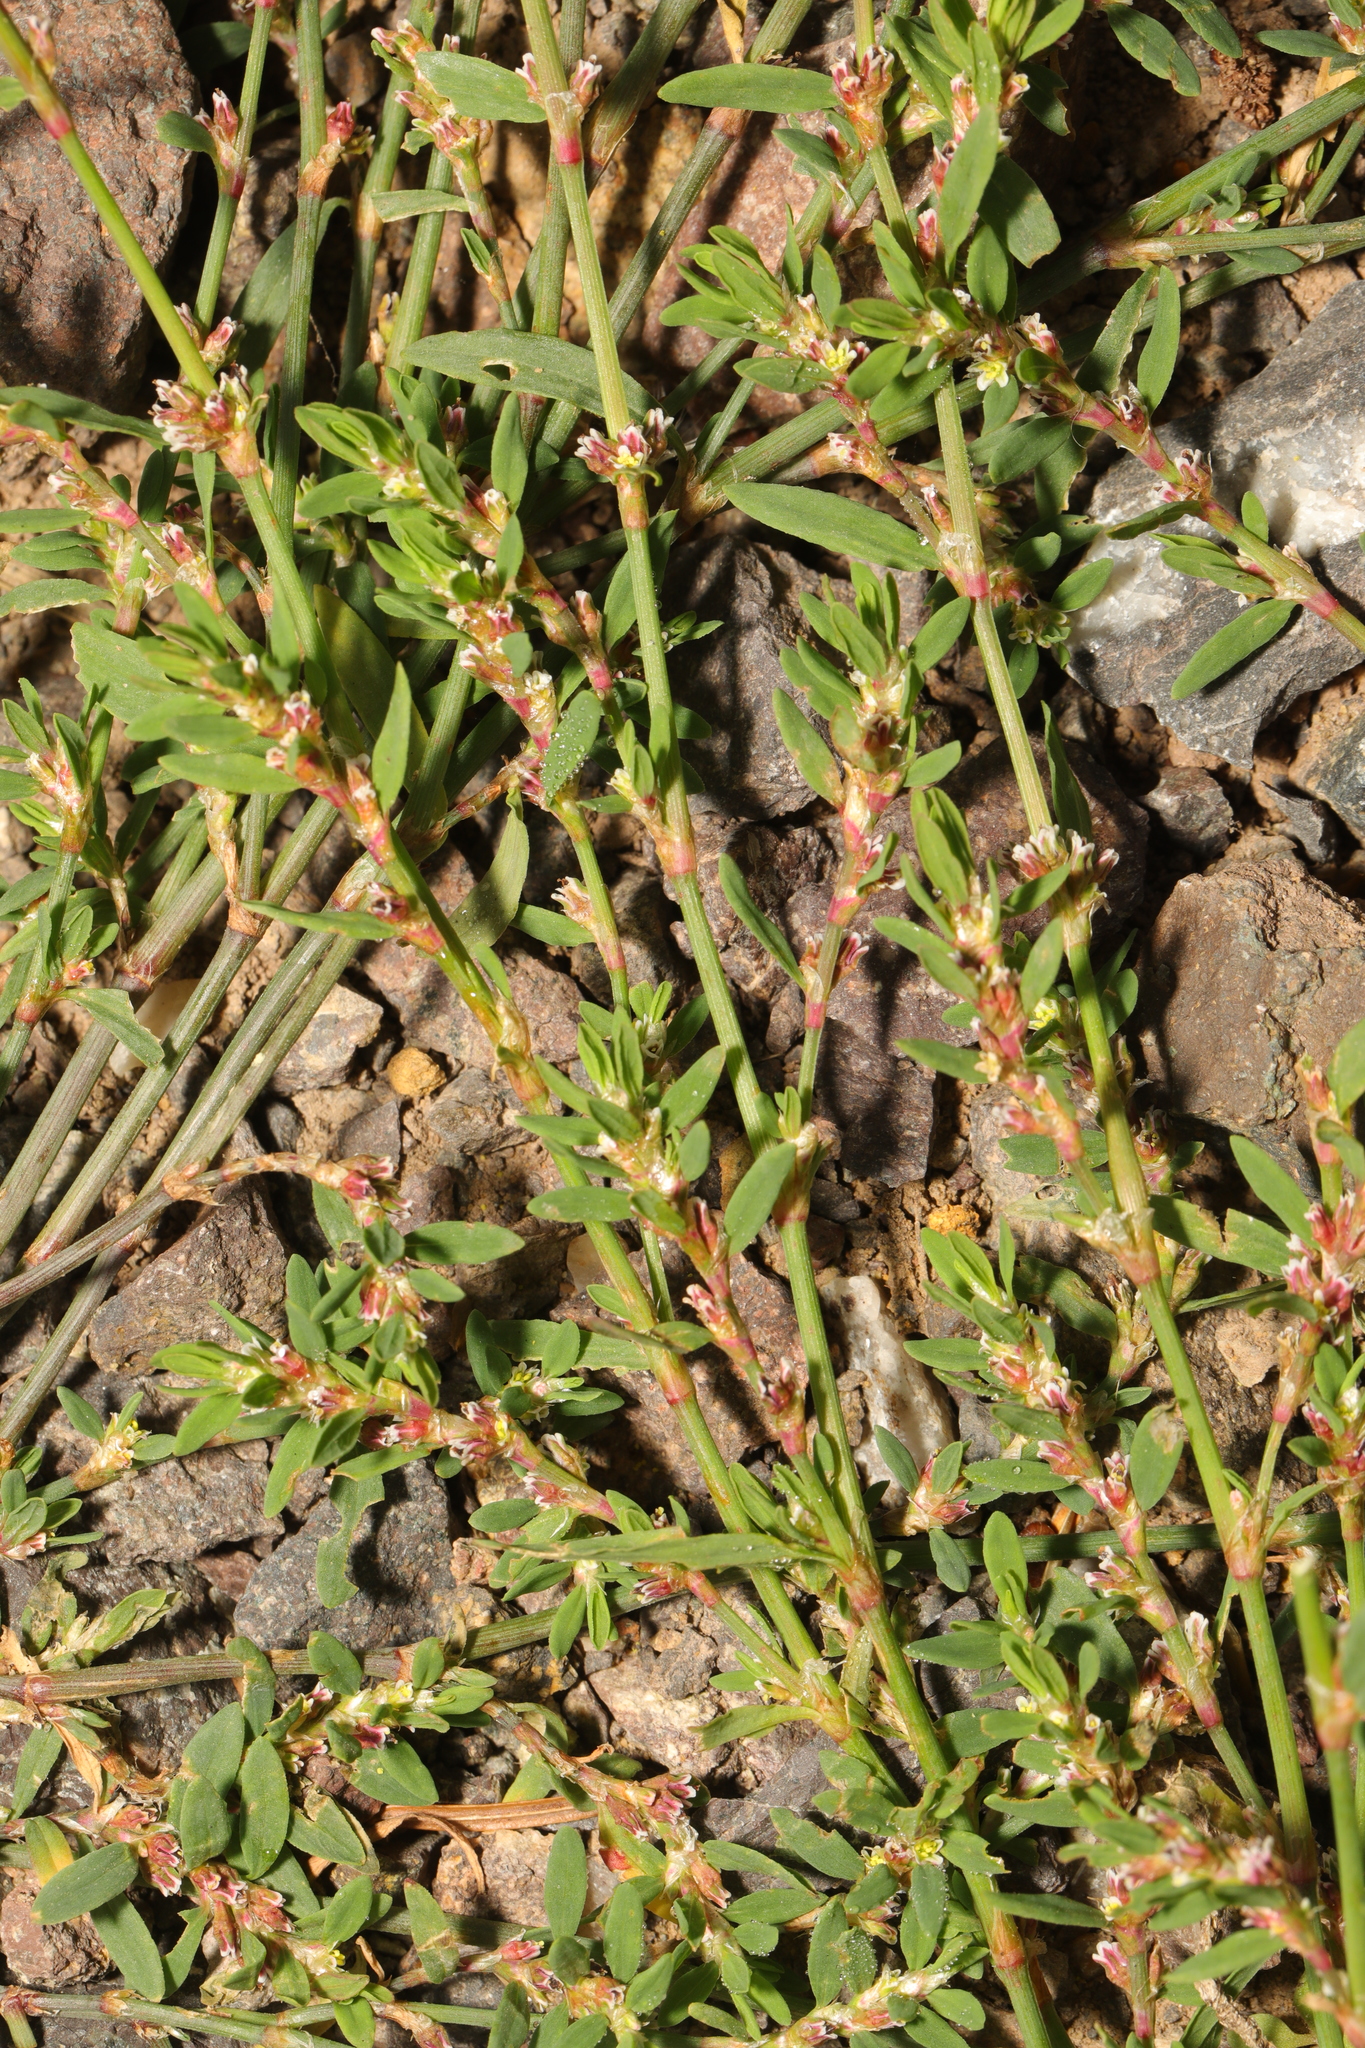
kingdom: Plantae
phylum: Tracheophyta
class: Magnoliopsida
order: Caryophyllales
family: Polygonaceae
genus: Polygonum
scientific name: Polygonum aviculare
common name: Prostrate knotweed
